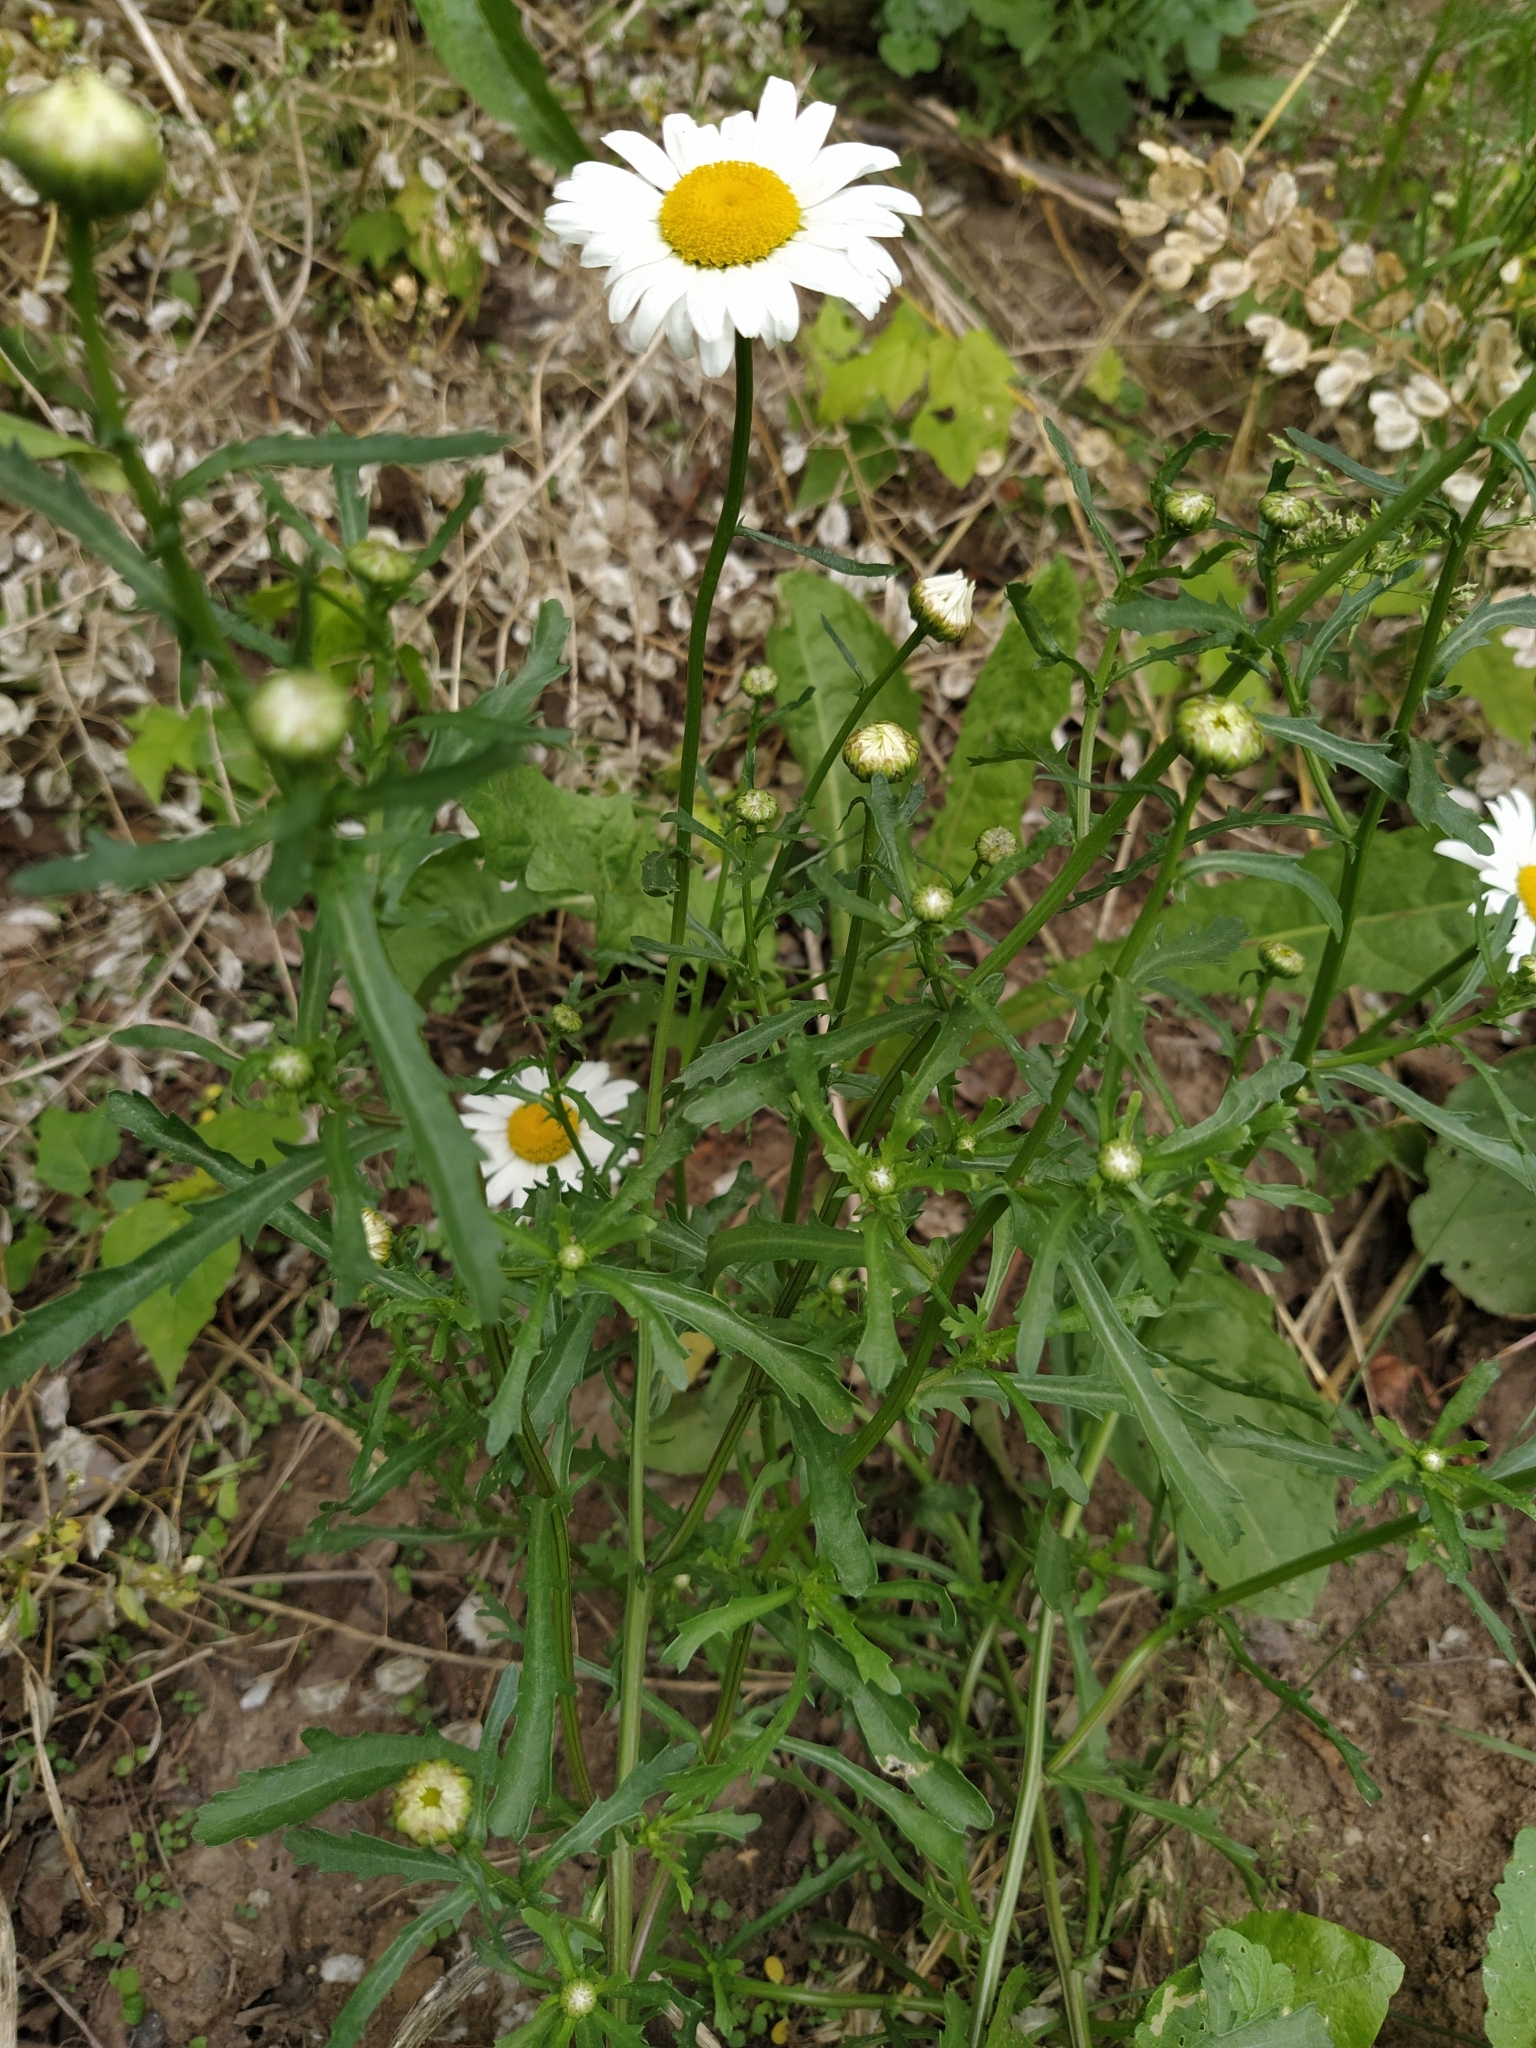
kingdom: Plantae
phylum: Tracheophyta
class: Magnoliopsida
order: Asterales
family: Asteraceae
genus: Leucanthemum
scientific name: Leucanthemum vulgare
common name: Oxeye daisy
